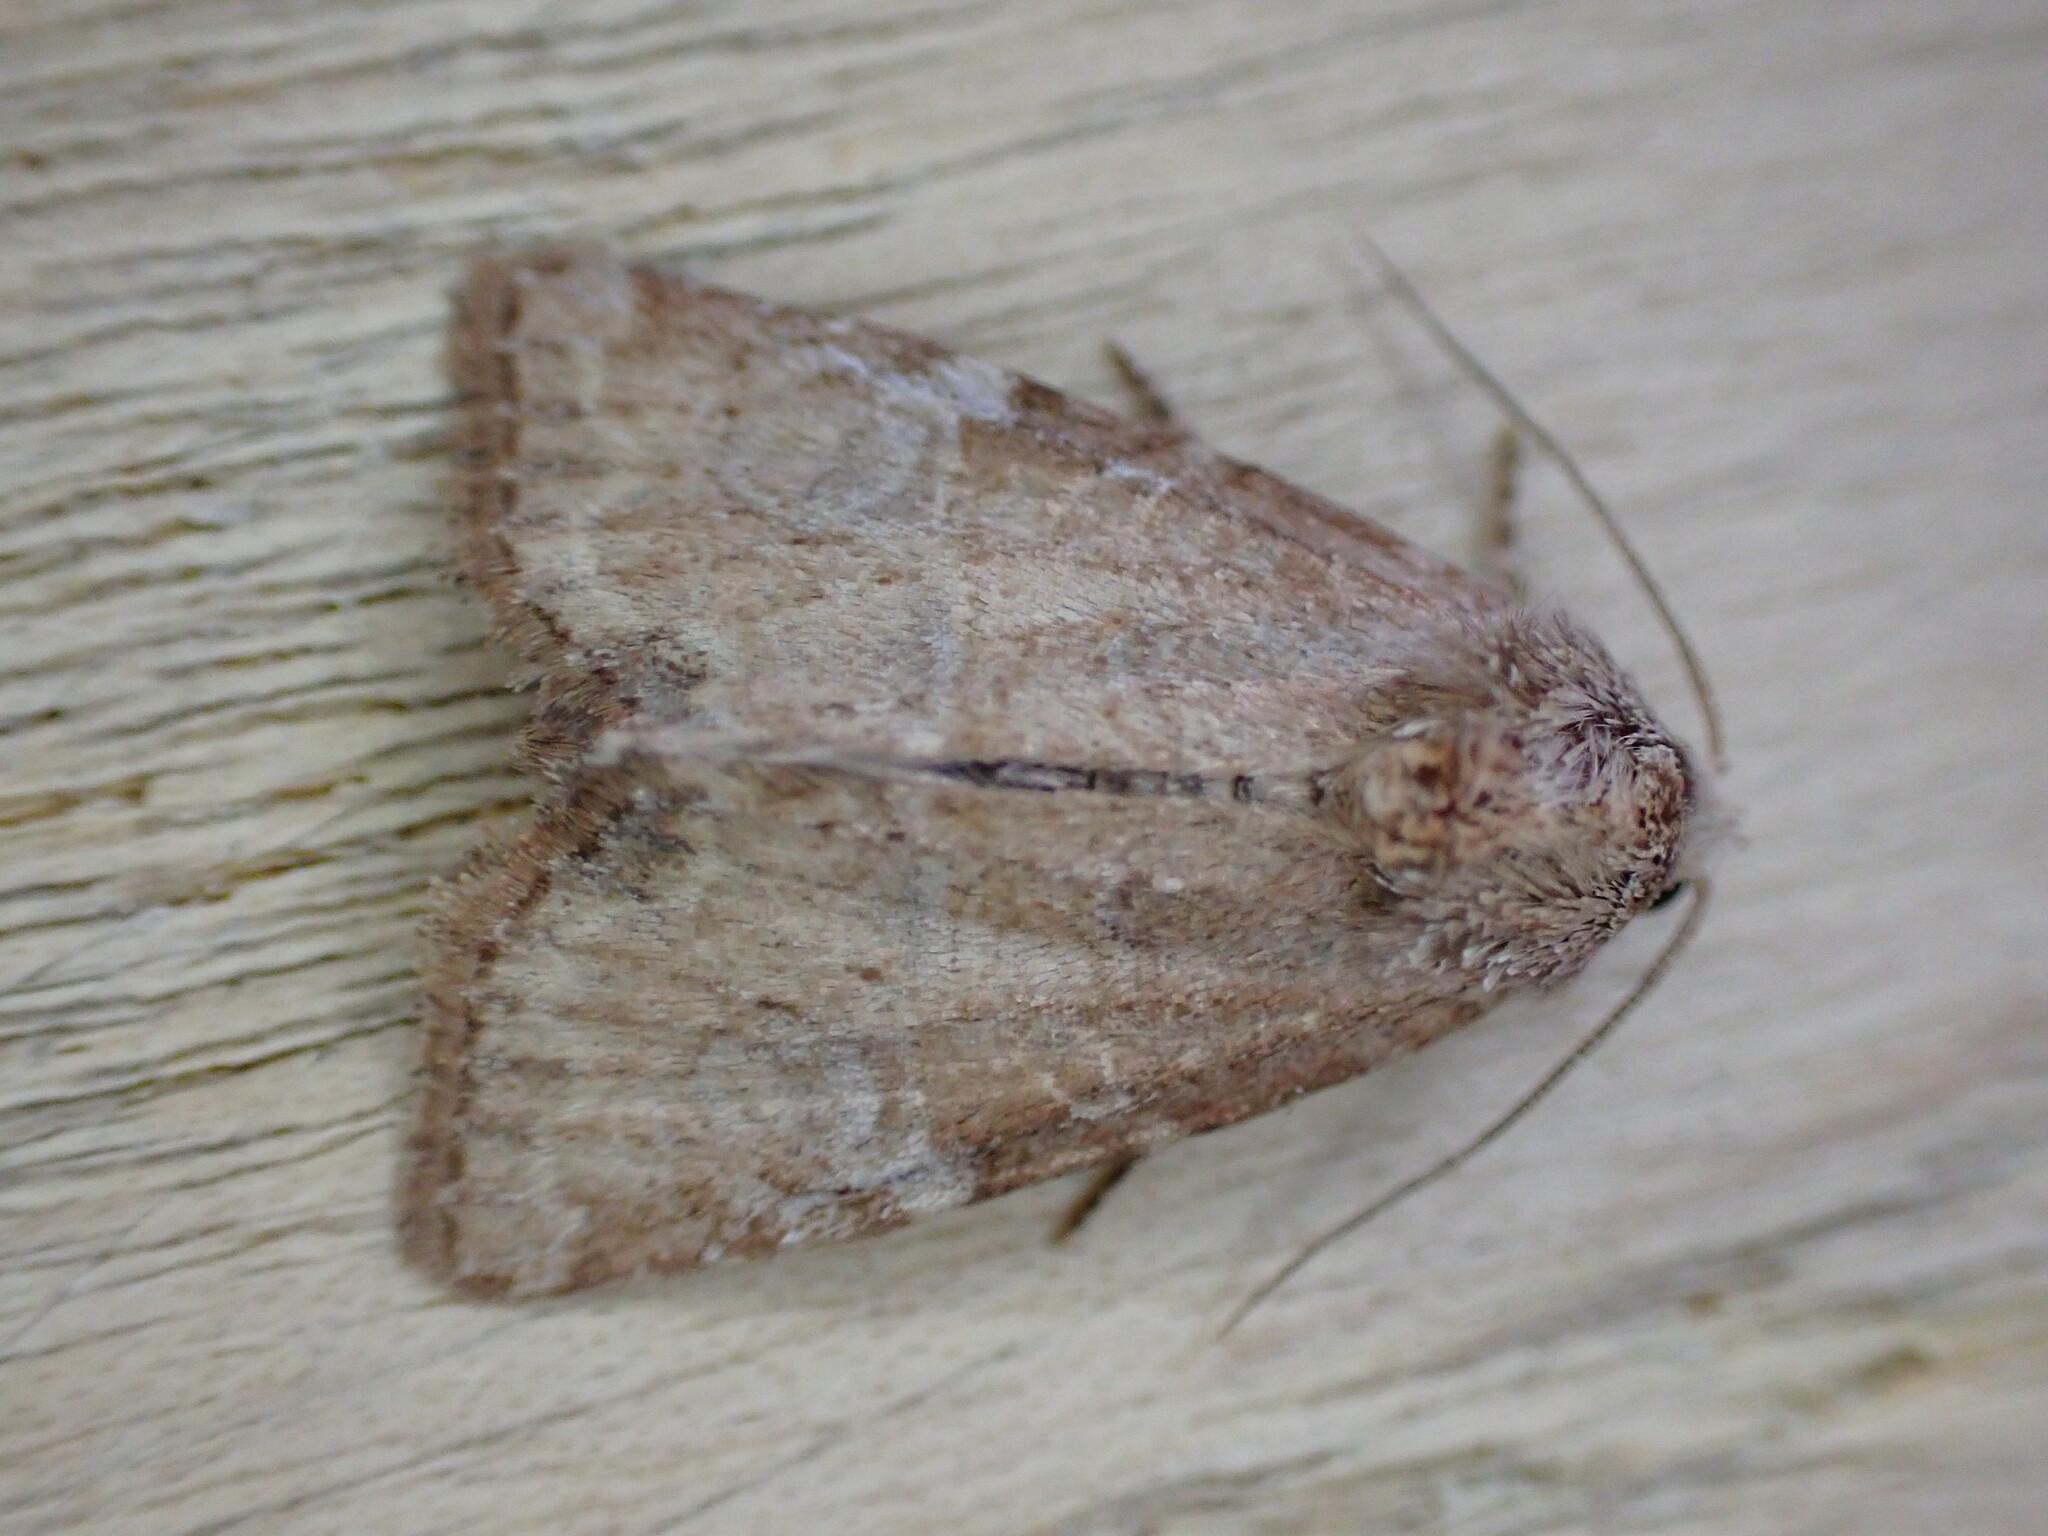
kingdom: Animalia
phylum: Arthropoda
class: Insecta
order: Lepidoptera
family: Noctuidae
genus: Mesoligia
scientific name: Mesoligia furuncula
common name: Cloaked minor
